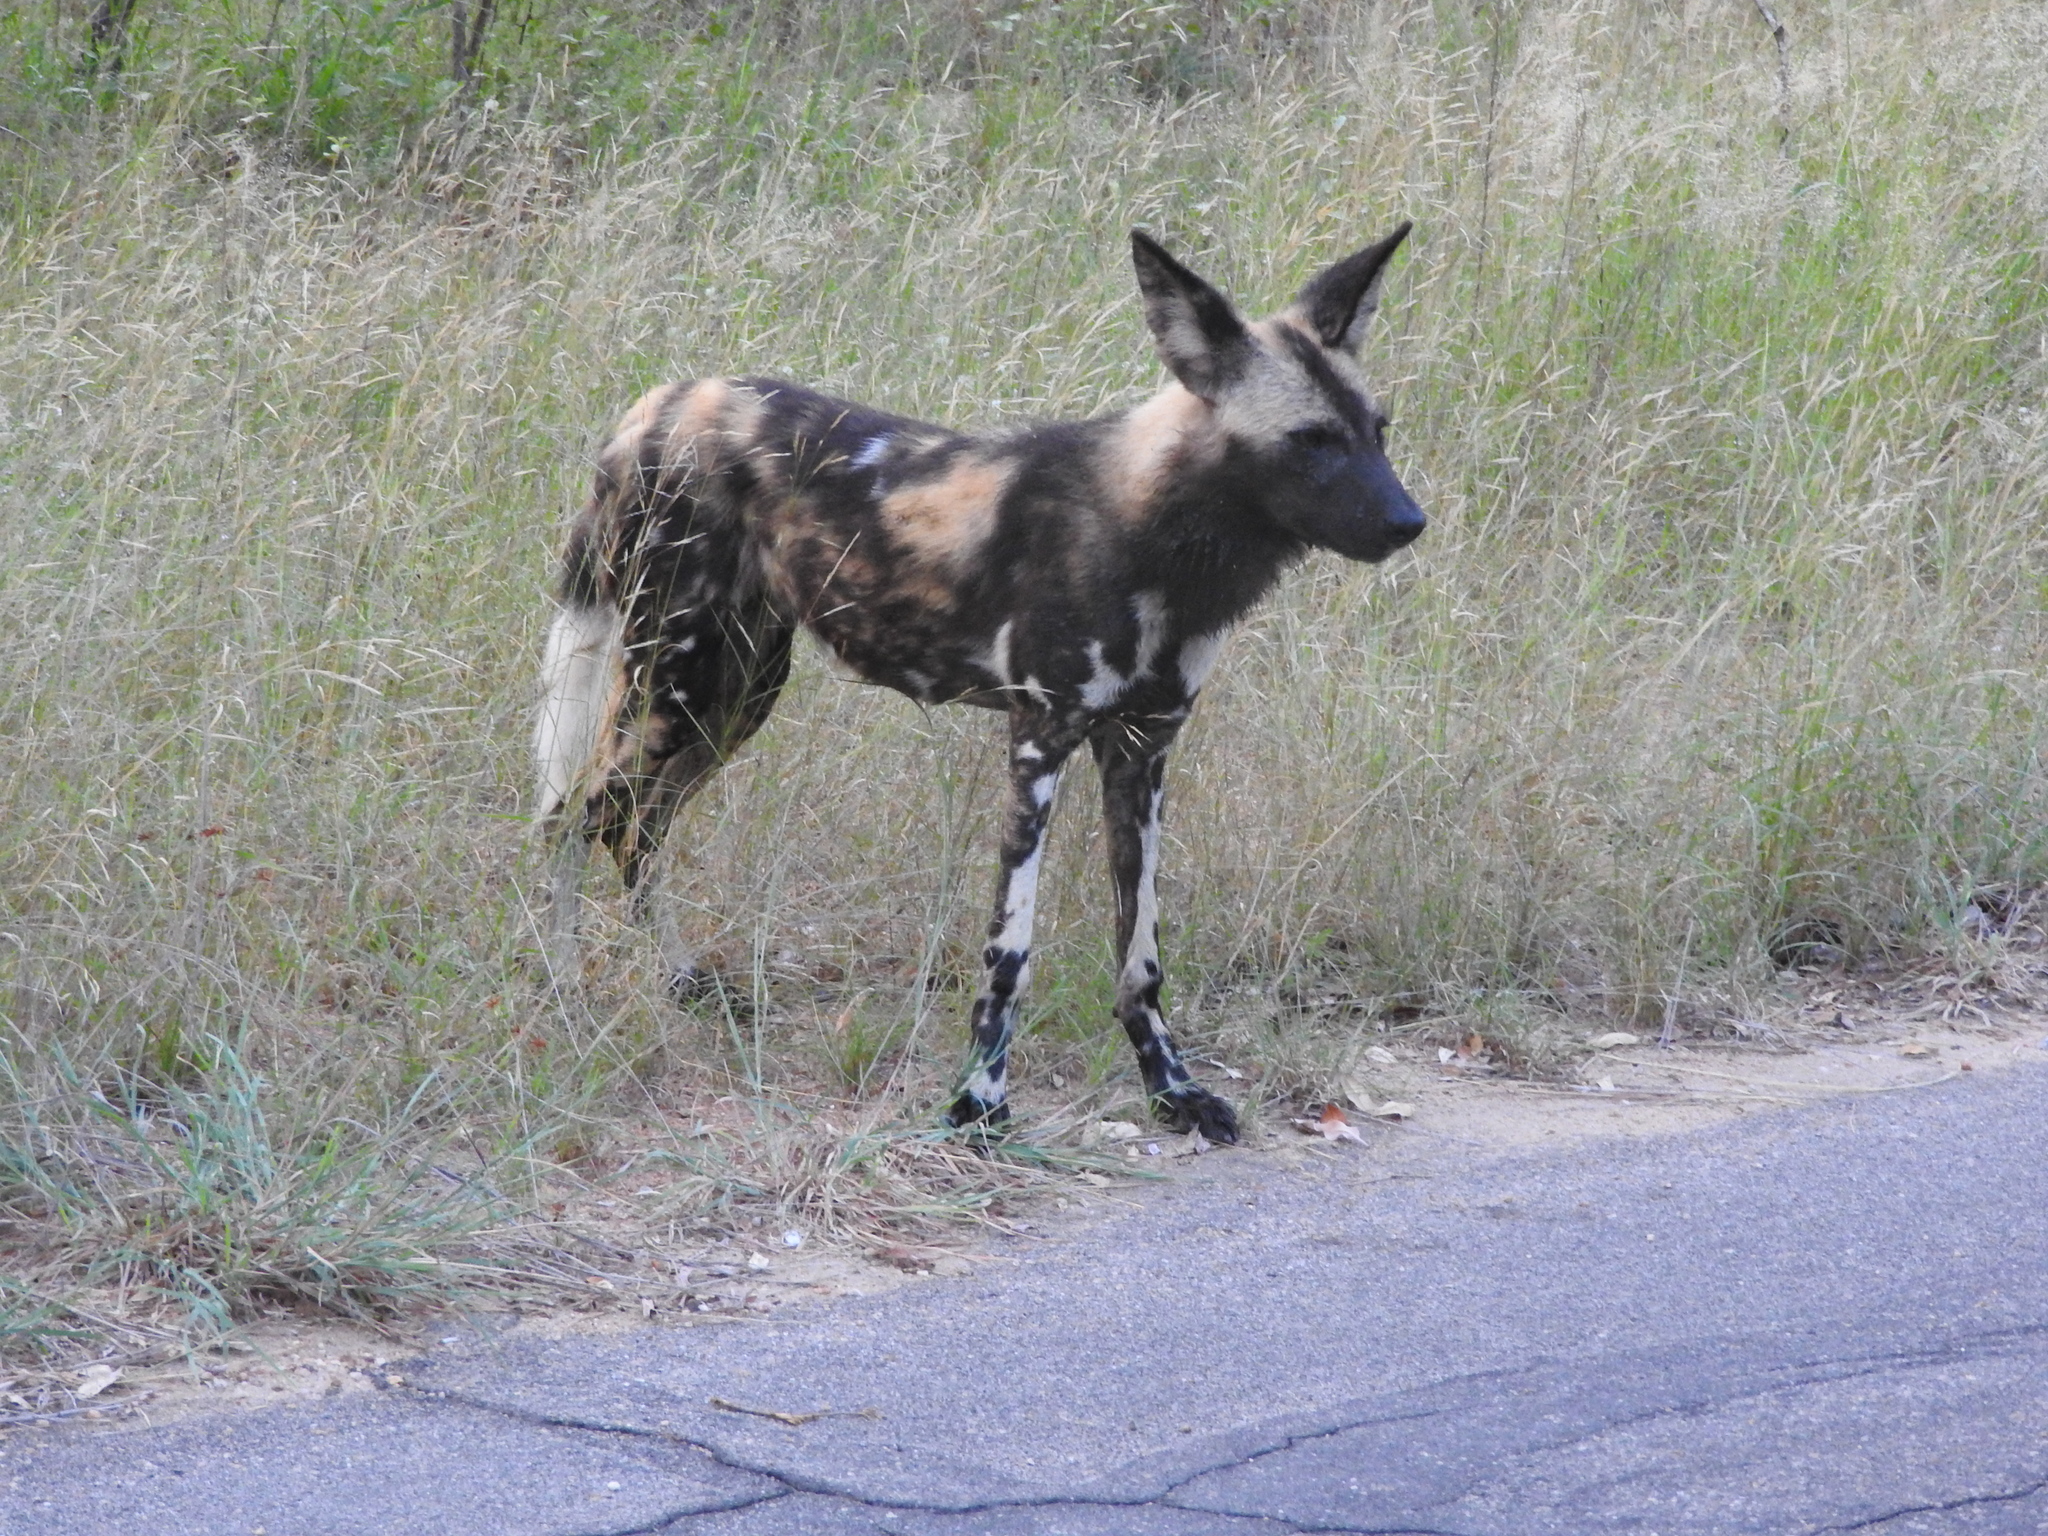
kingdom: Animalia
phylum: Chordata
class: Mammalia
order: Carnivora
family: Canidae
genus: Lycaon
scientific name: Lycaon pictus
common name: African wild dog
